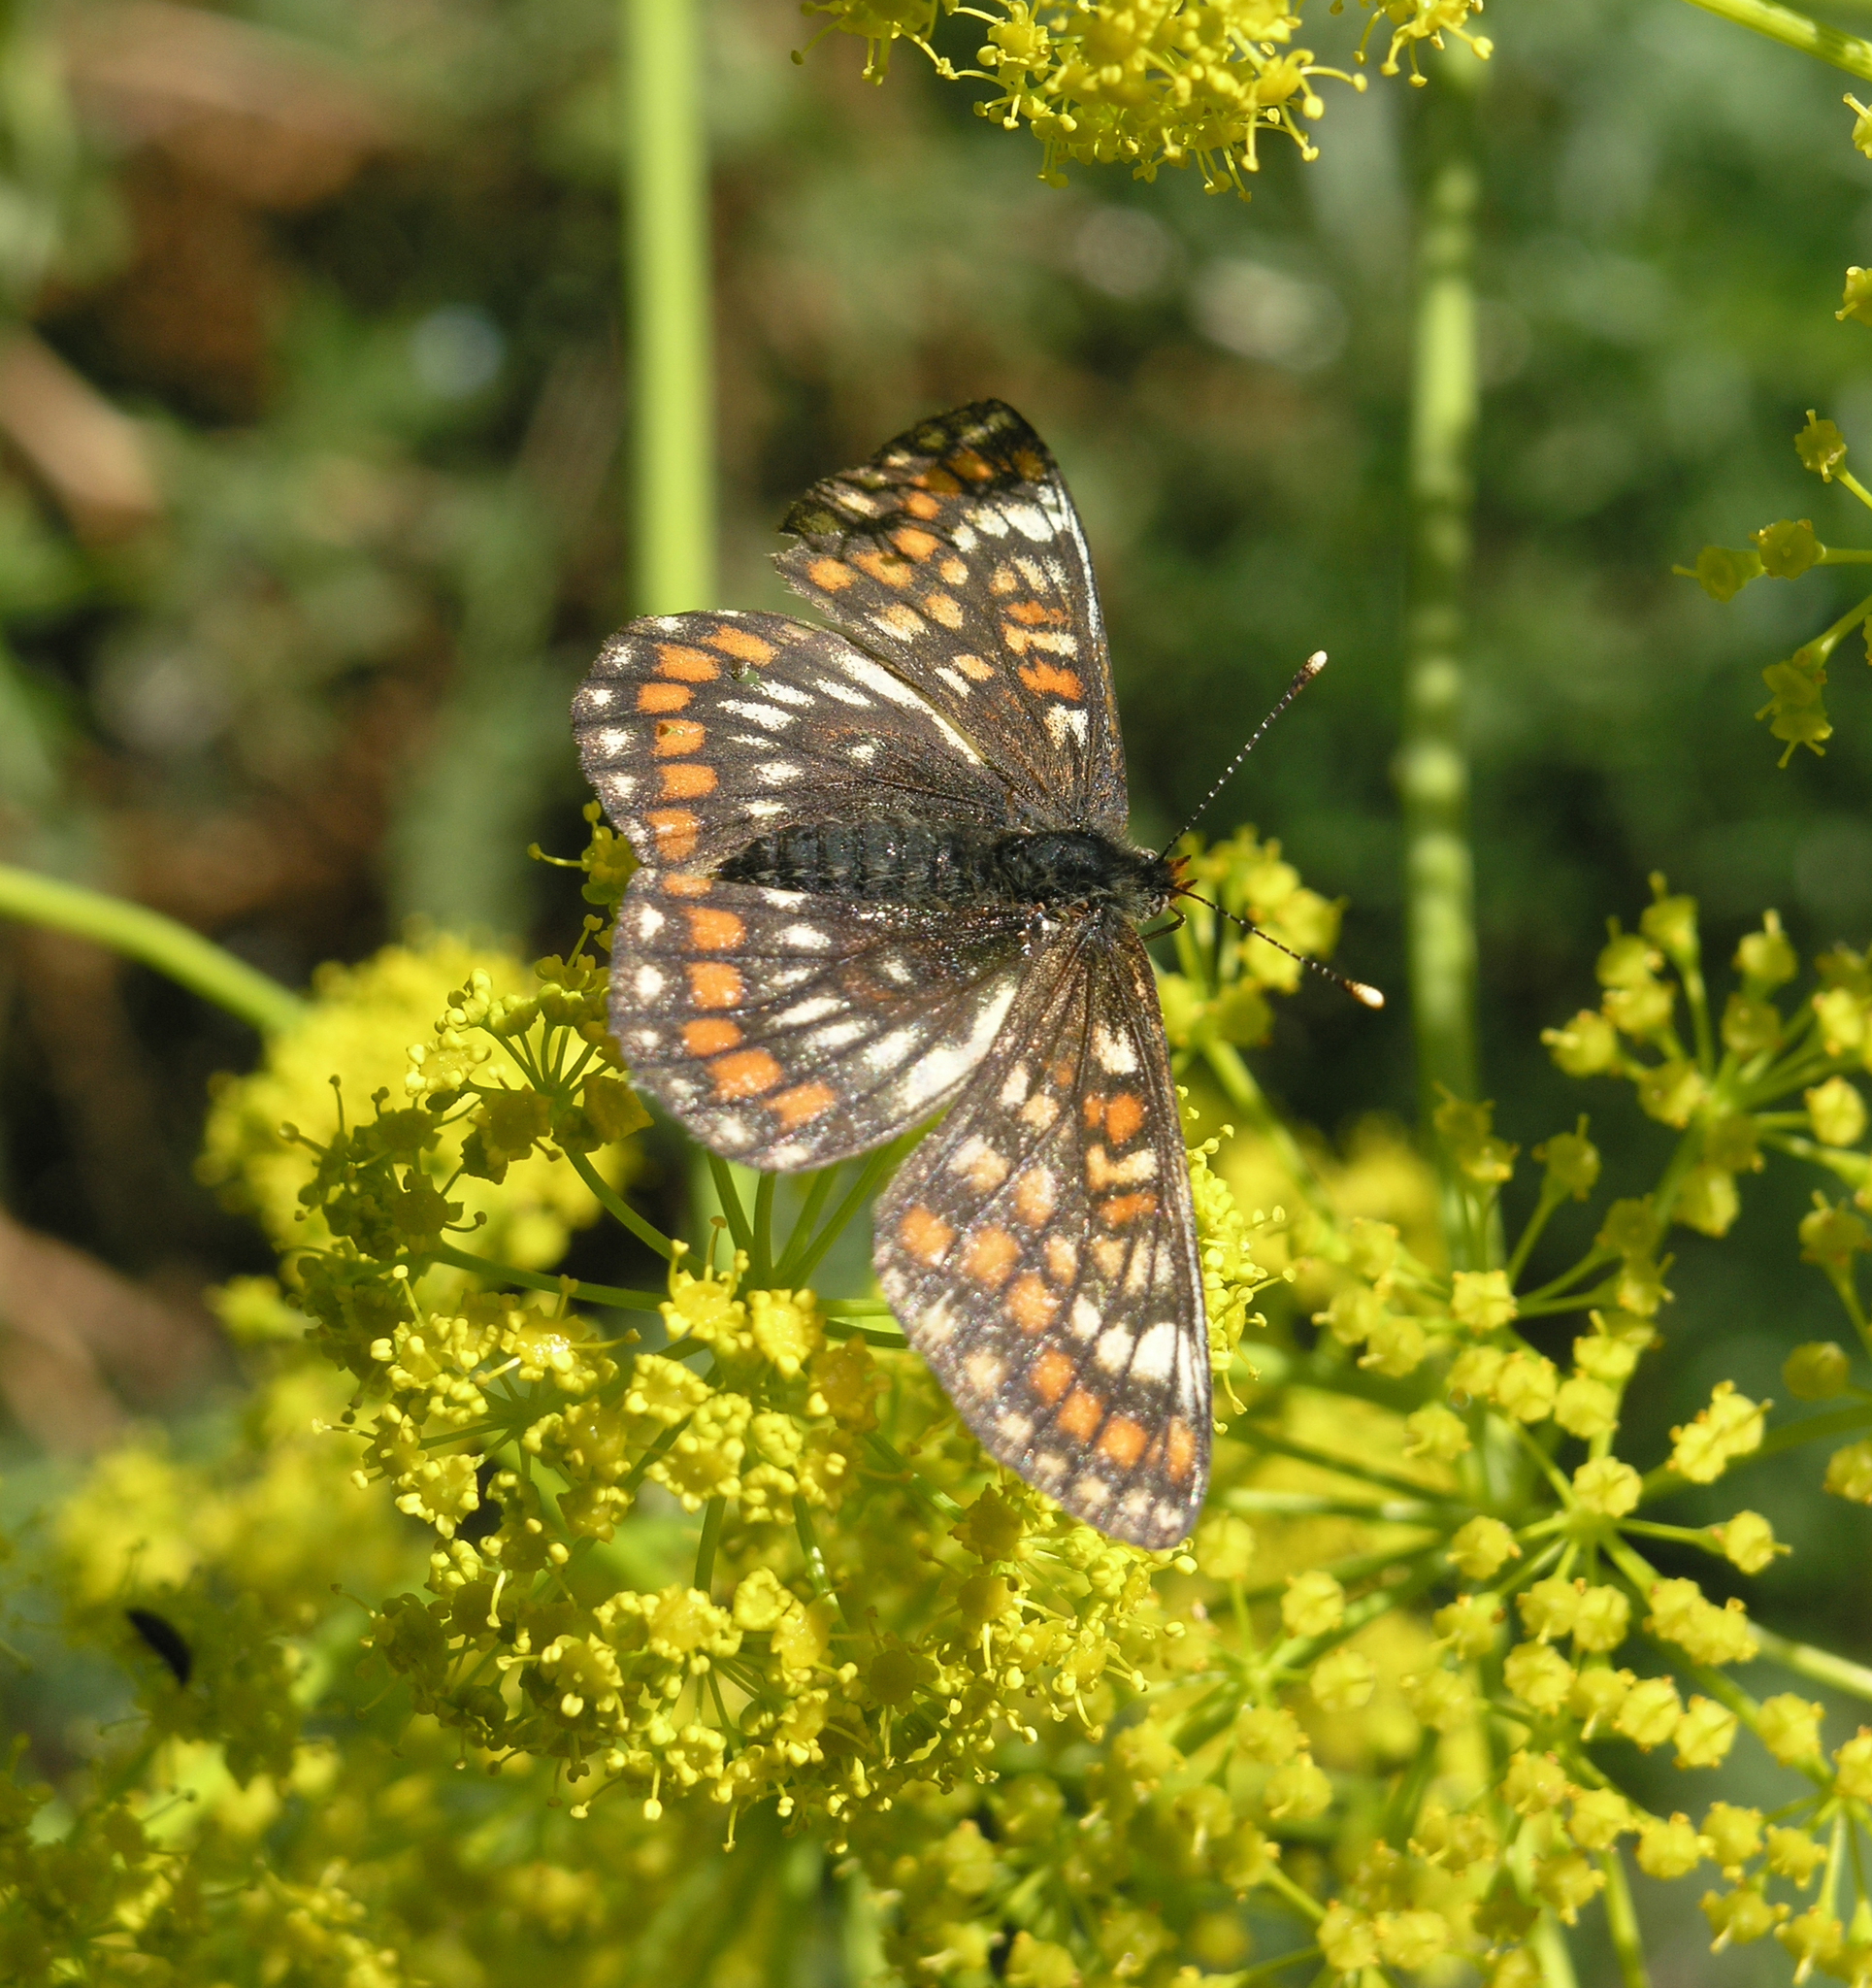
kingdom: Animalia
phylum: Arthropoda
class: Insecta
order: Lepidoptera
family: Nymphalidae
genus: Euphydryas
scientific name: Euphydryas maturna
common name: Scarce fritillary
